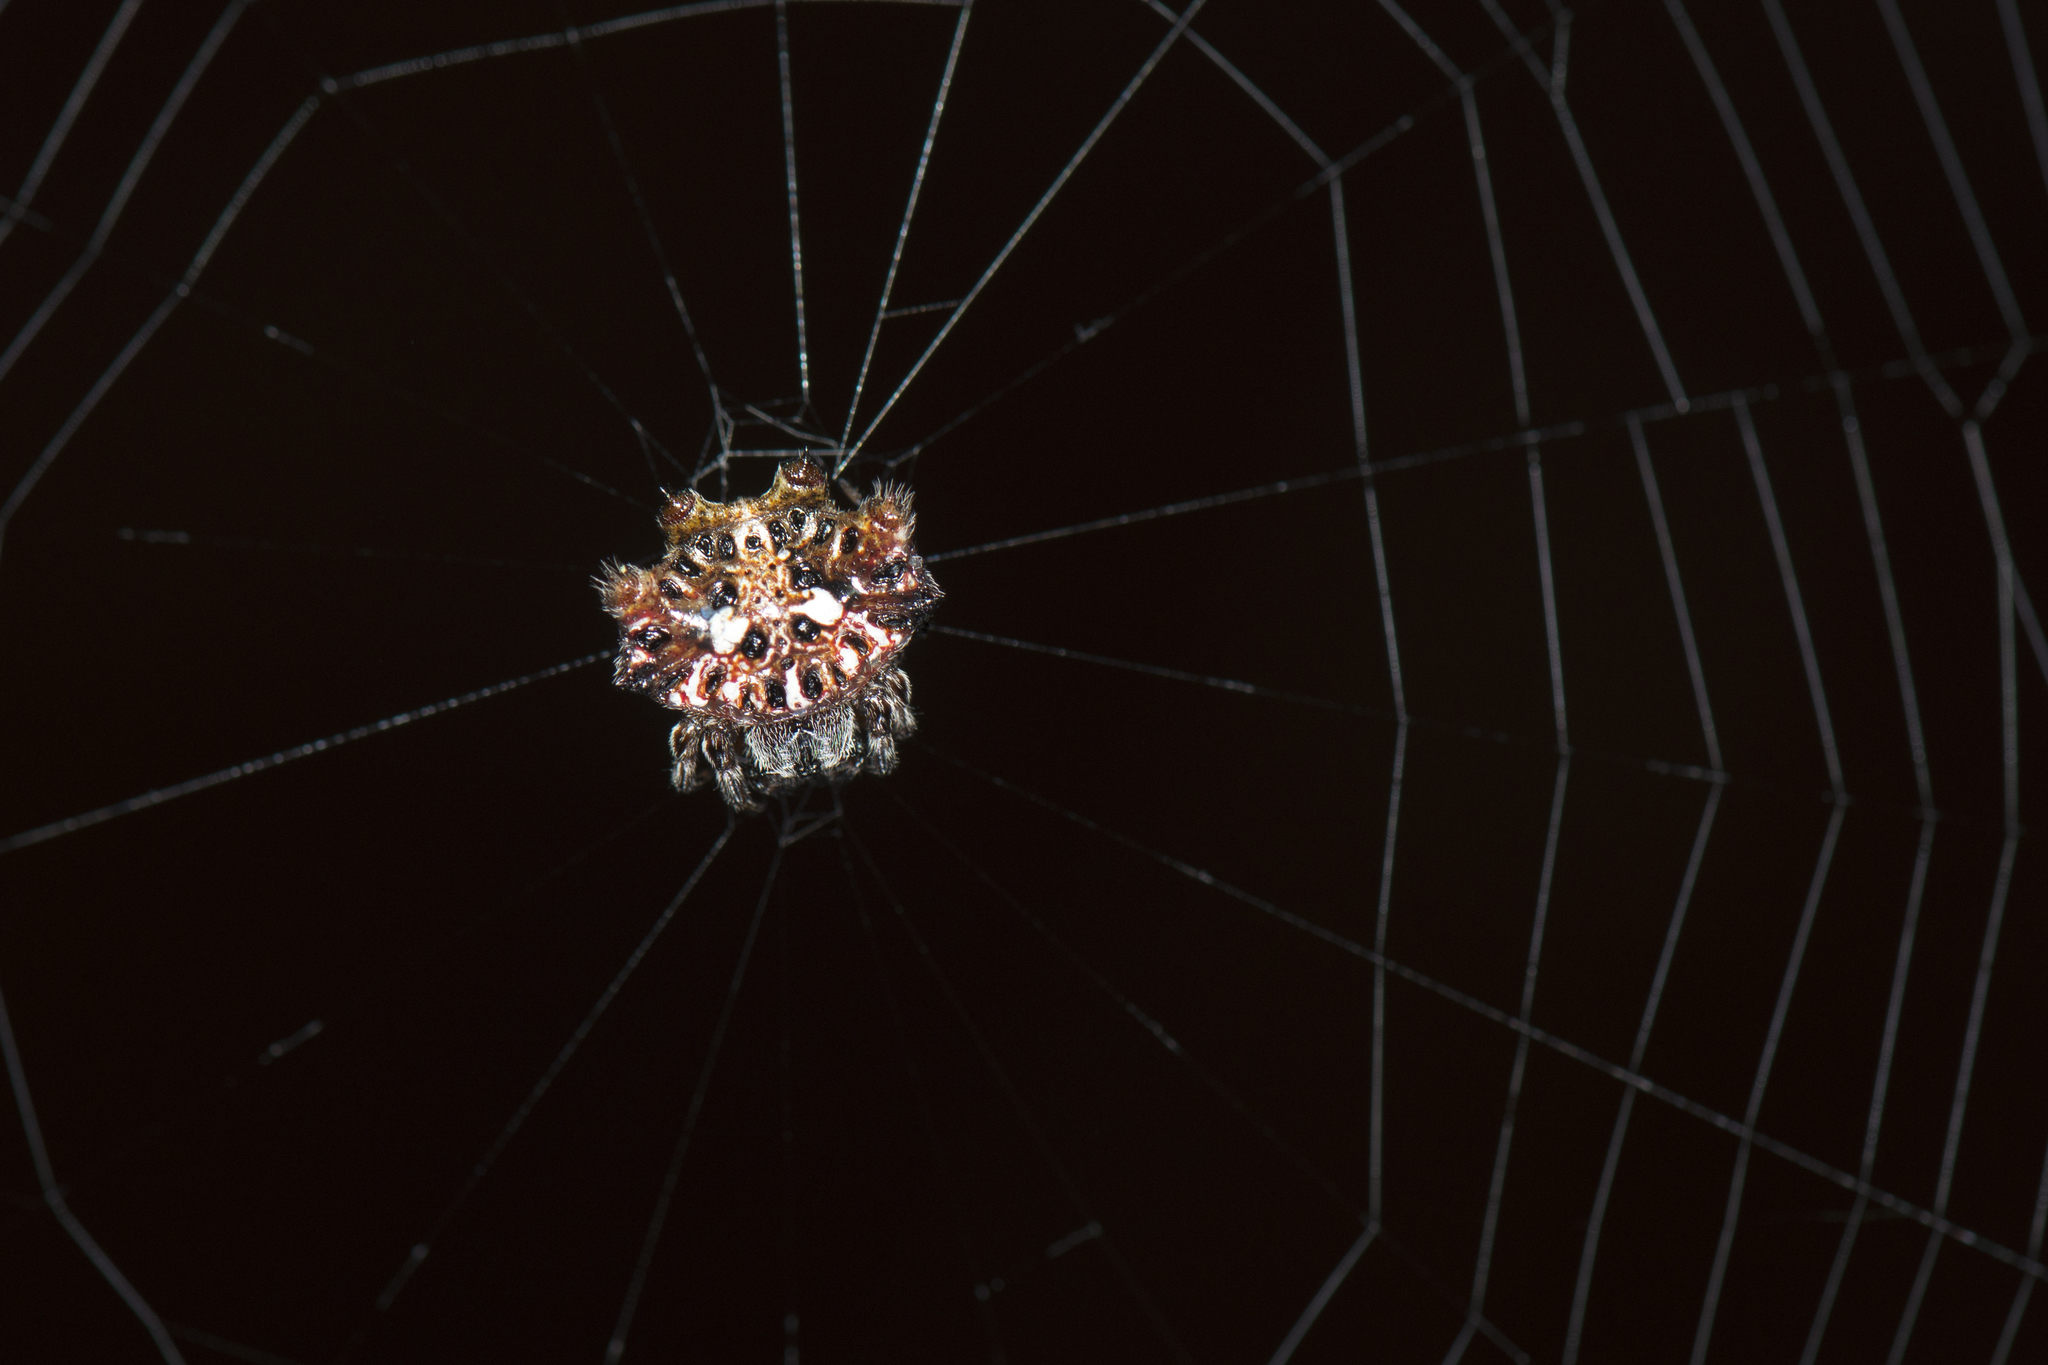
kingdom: Animalia
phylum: Arthropoda
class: Arachnida
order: Araneae
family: Araneidae
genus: Thelacantha
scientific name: Thelacantha brevispina
